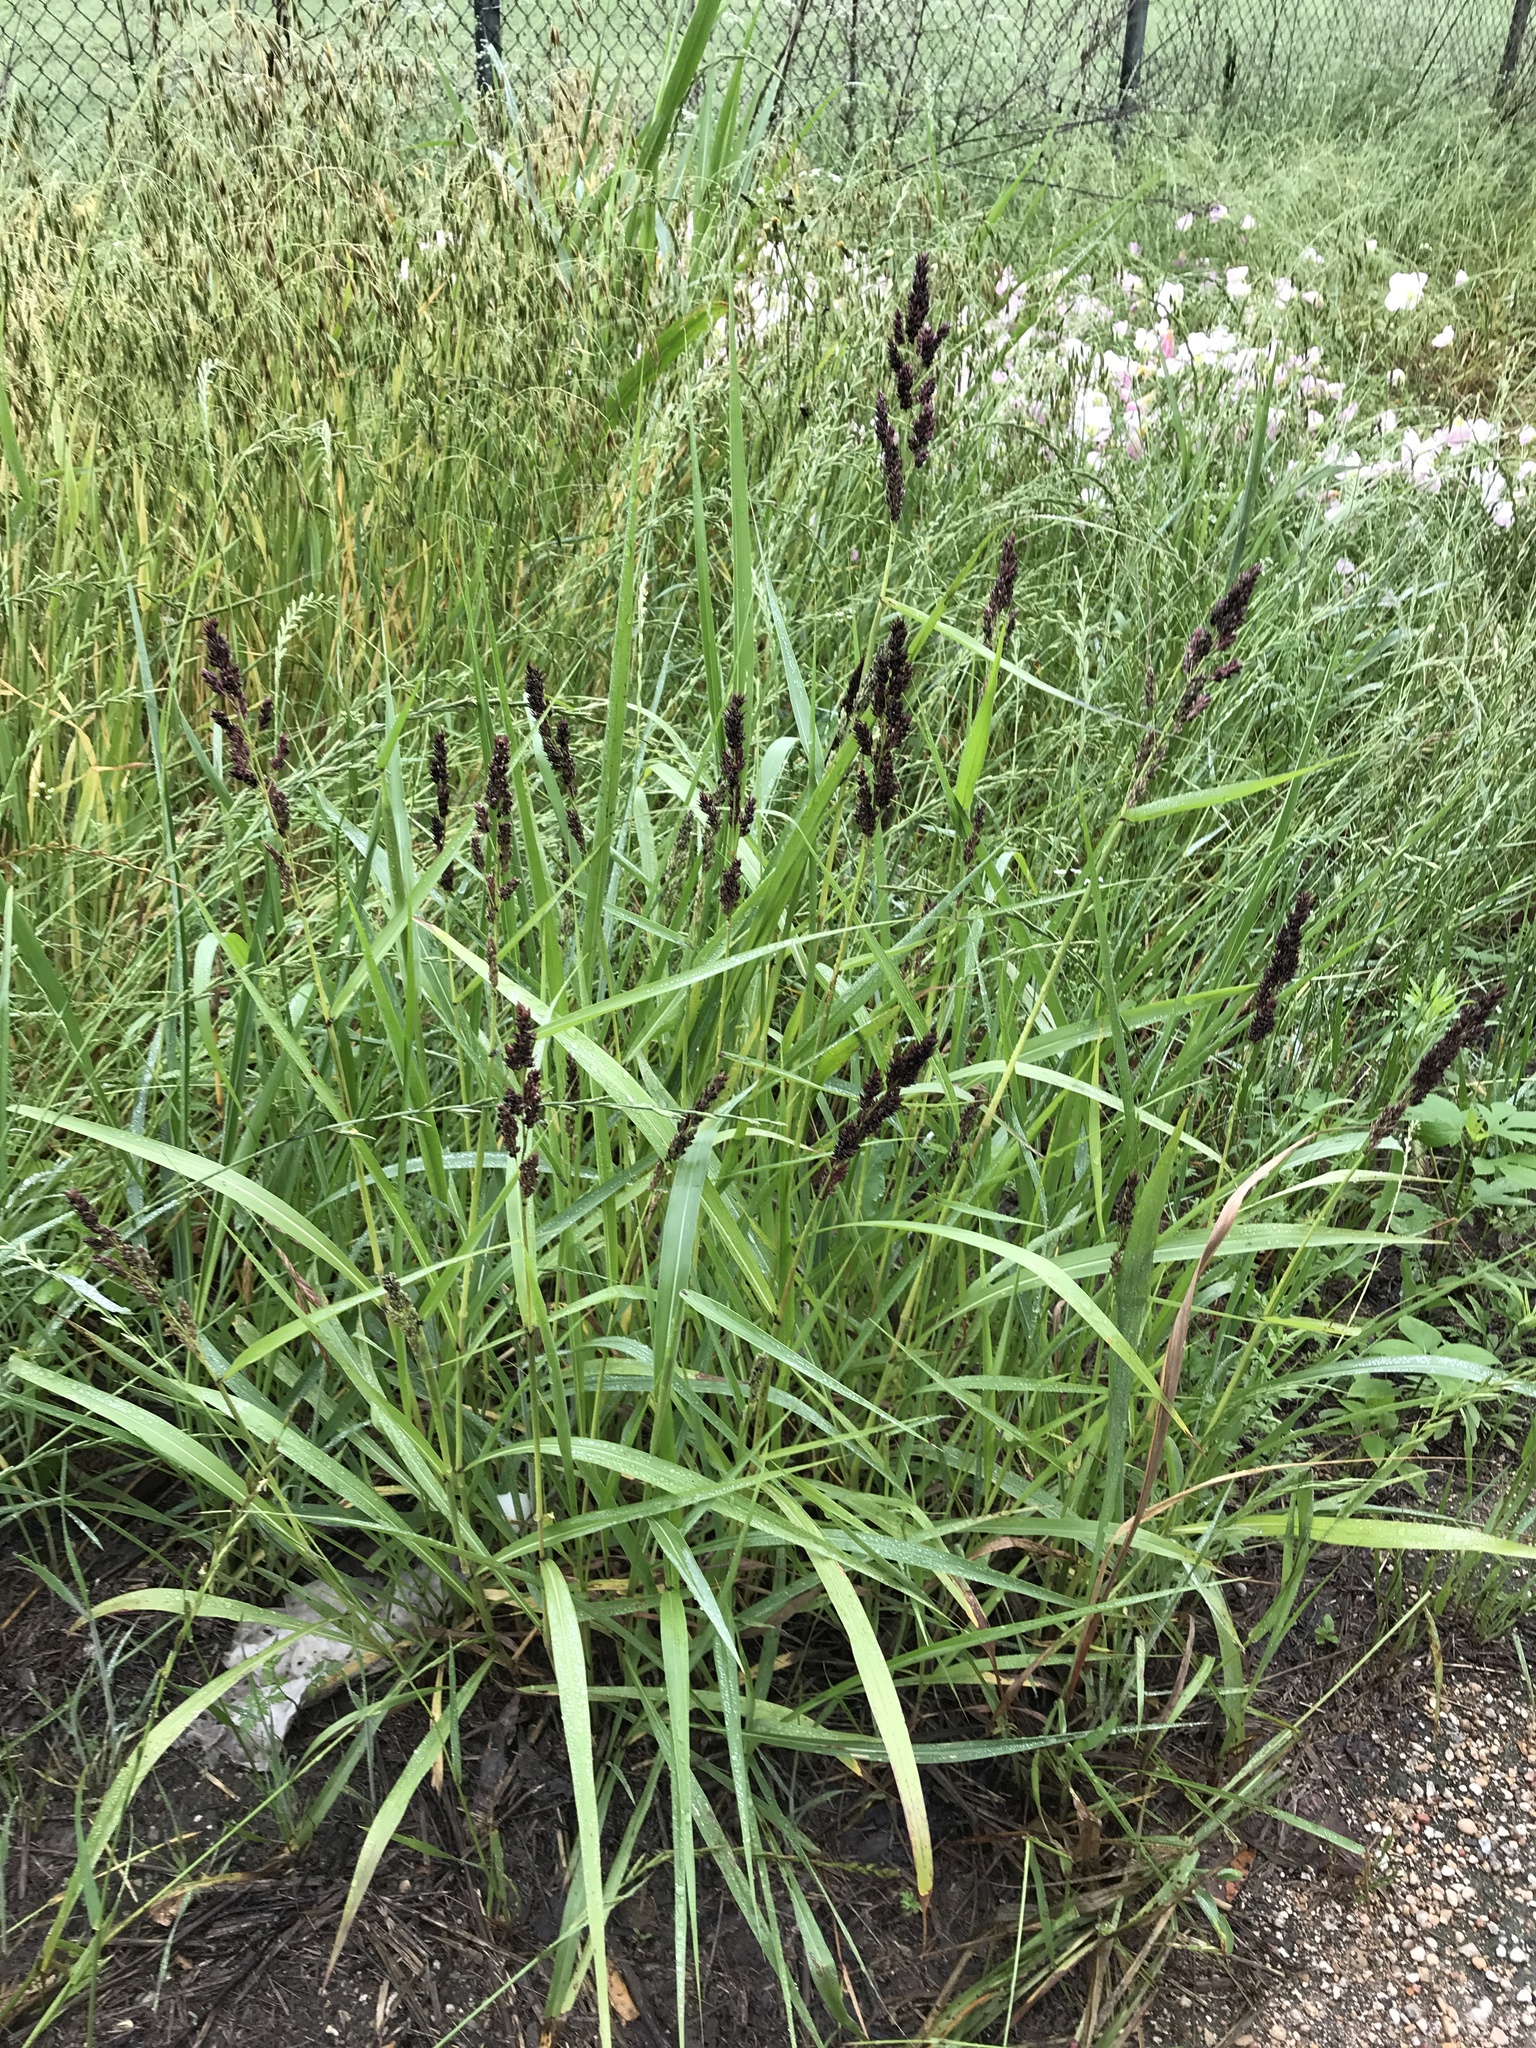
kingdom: Plantae
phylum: Tracheophyta
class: Liliopsida
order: Poales
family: Poaceae
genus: Sorghum
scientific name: Sorghum halepense
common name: Johnson-grass
